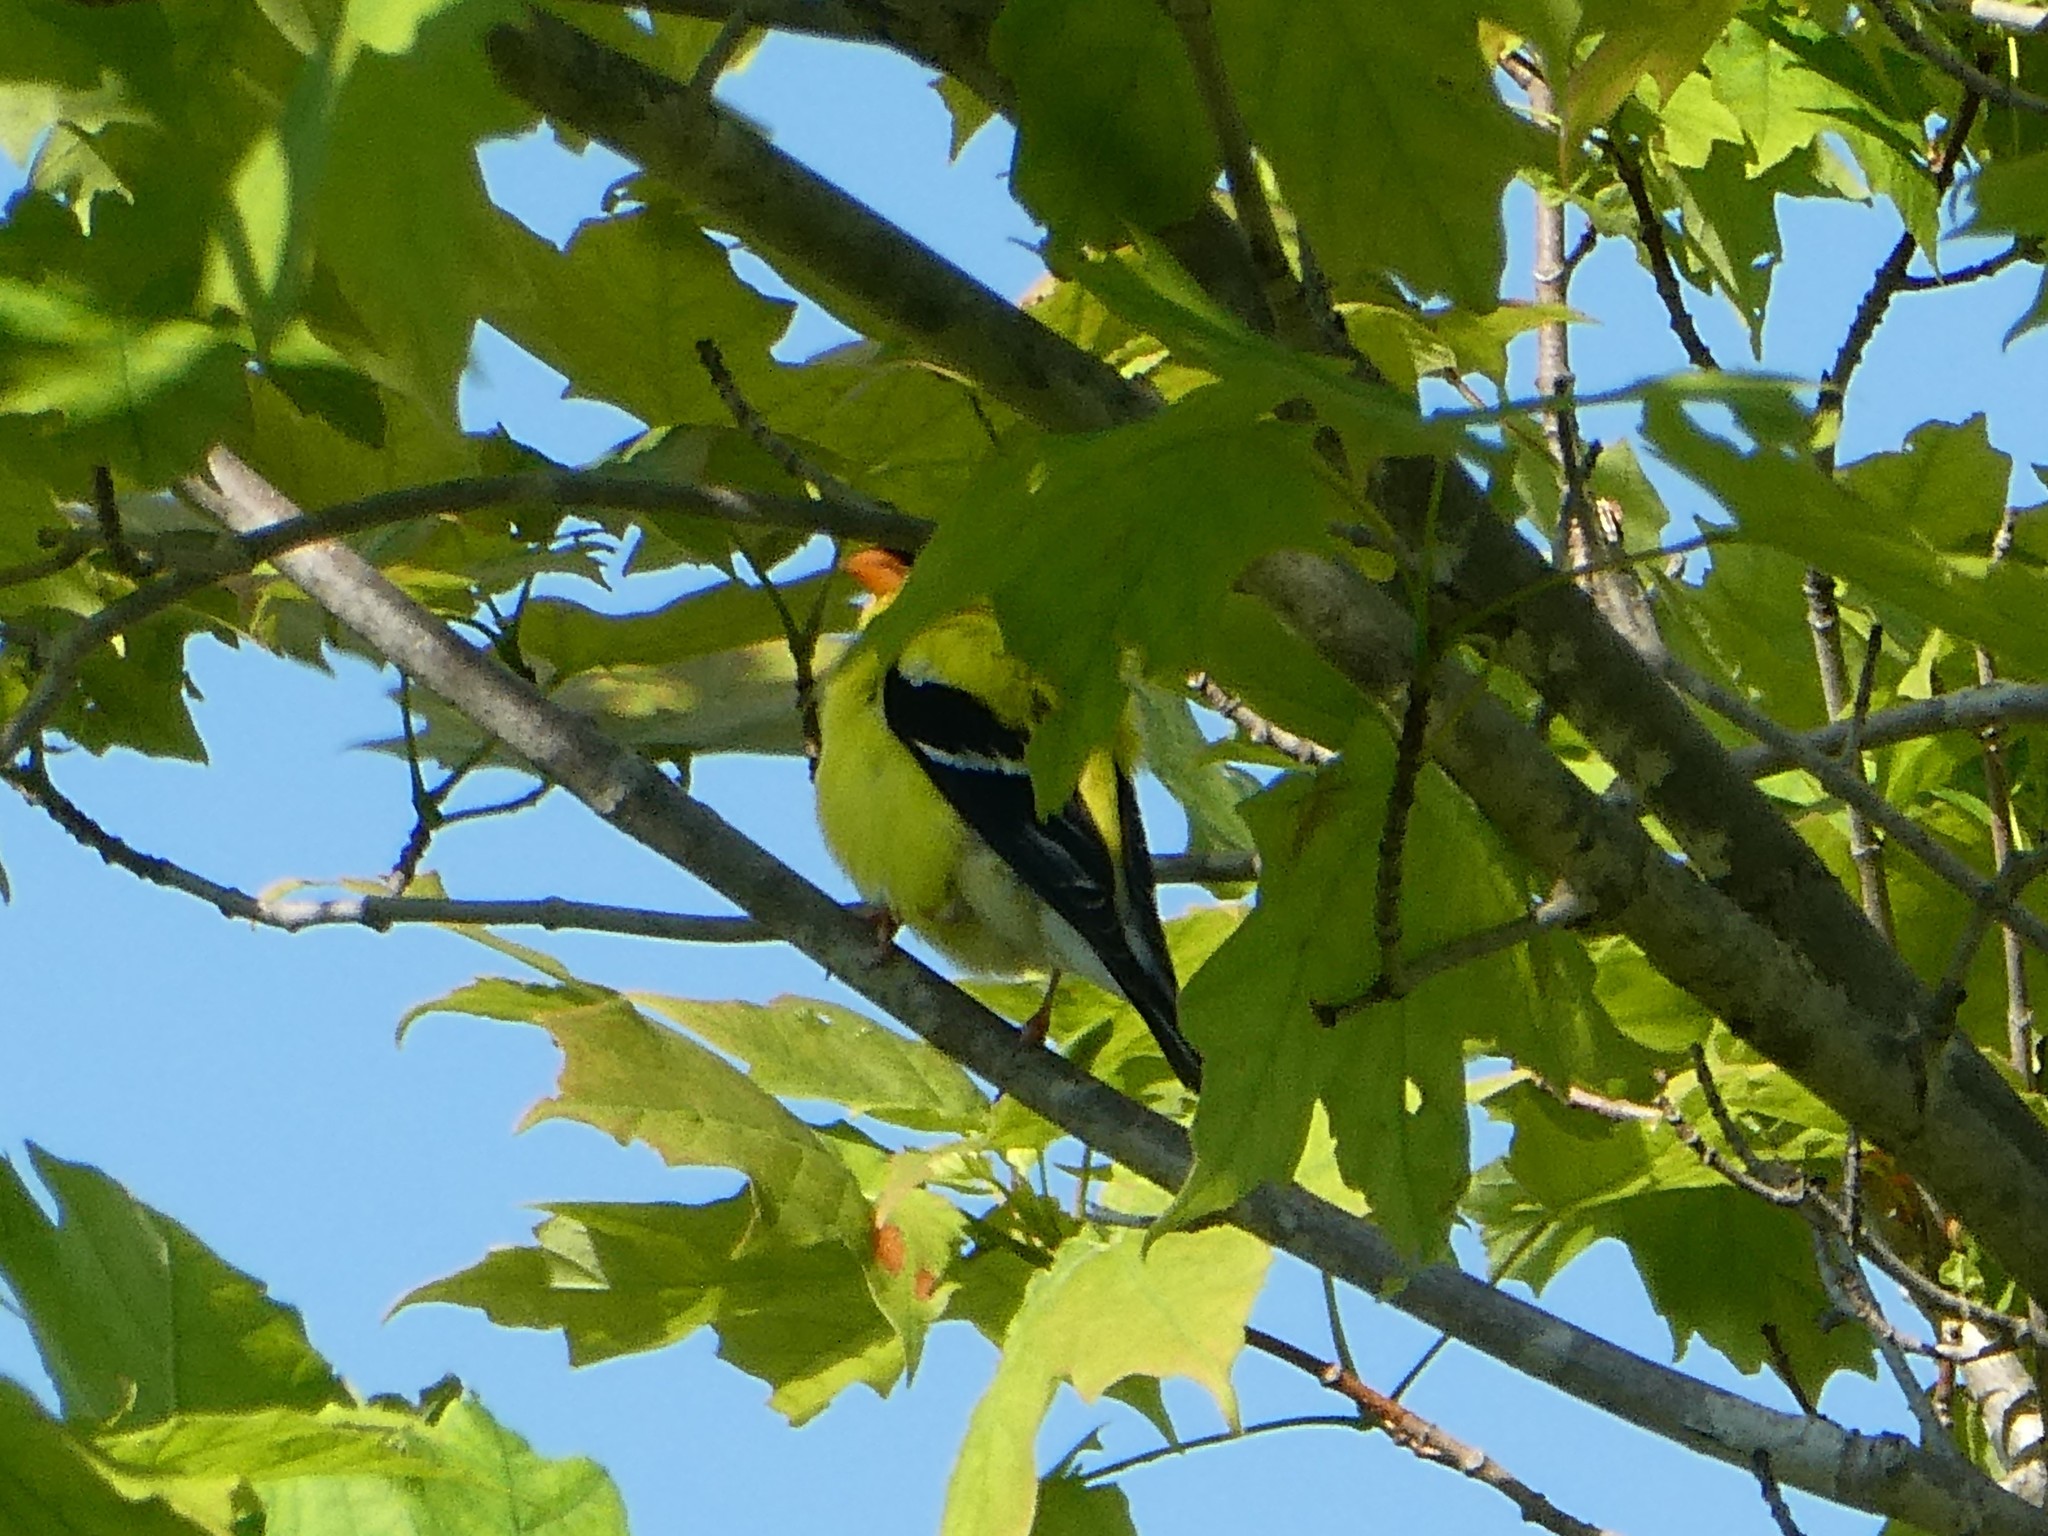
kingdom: Animalia
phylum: Chordata
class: Aves
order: Passeriformes
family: Fringillidae
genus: Spinus
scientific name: Spinus tristis
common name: American goldfinch
